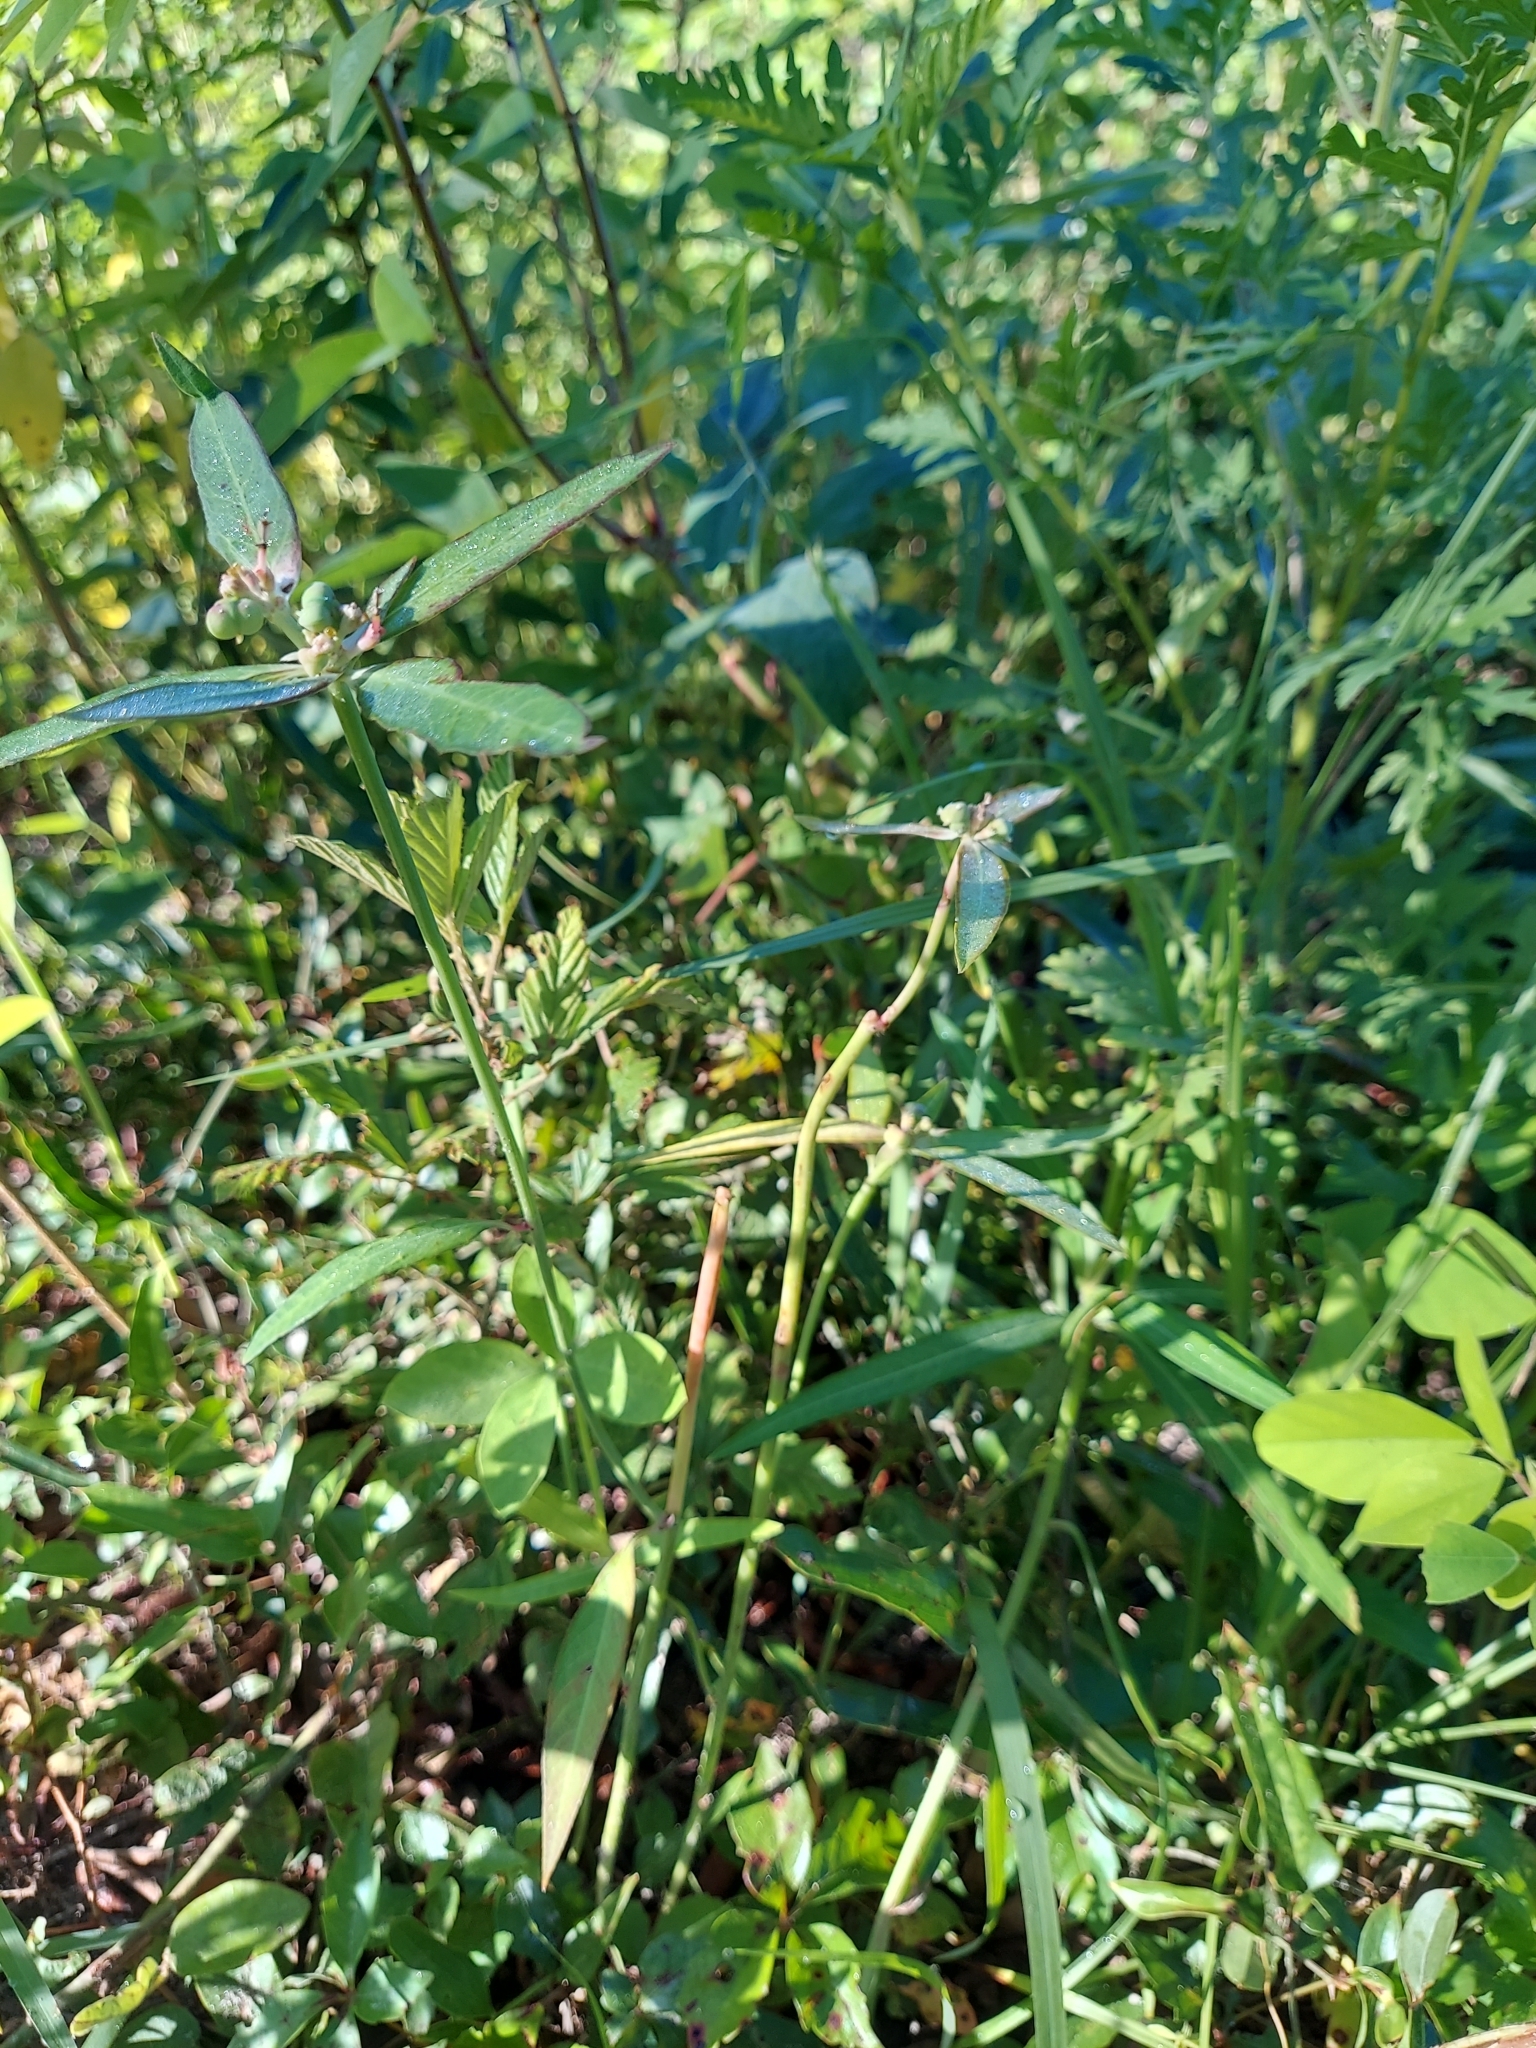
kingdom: Plantae
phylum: Tracheophyta
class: Magnoliopsida
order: Malpighiales
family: Euphorbiaceae
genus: Euphorbia
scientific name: Euphorbia heterophylla
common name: Mexican fireplant
